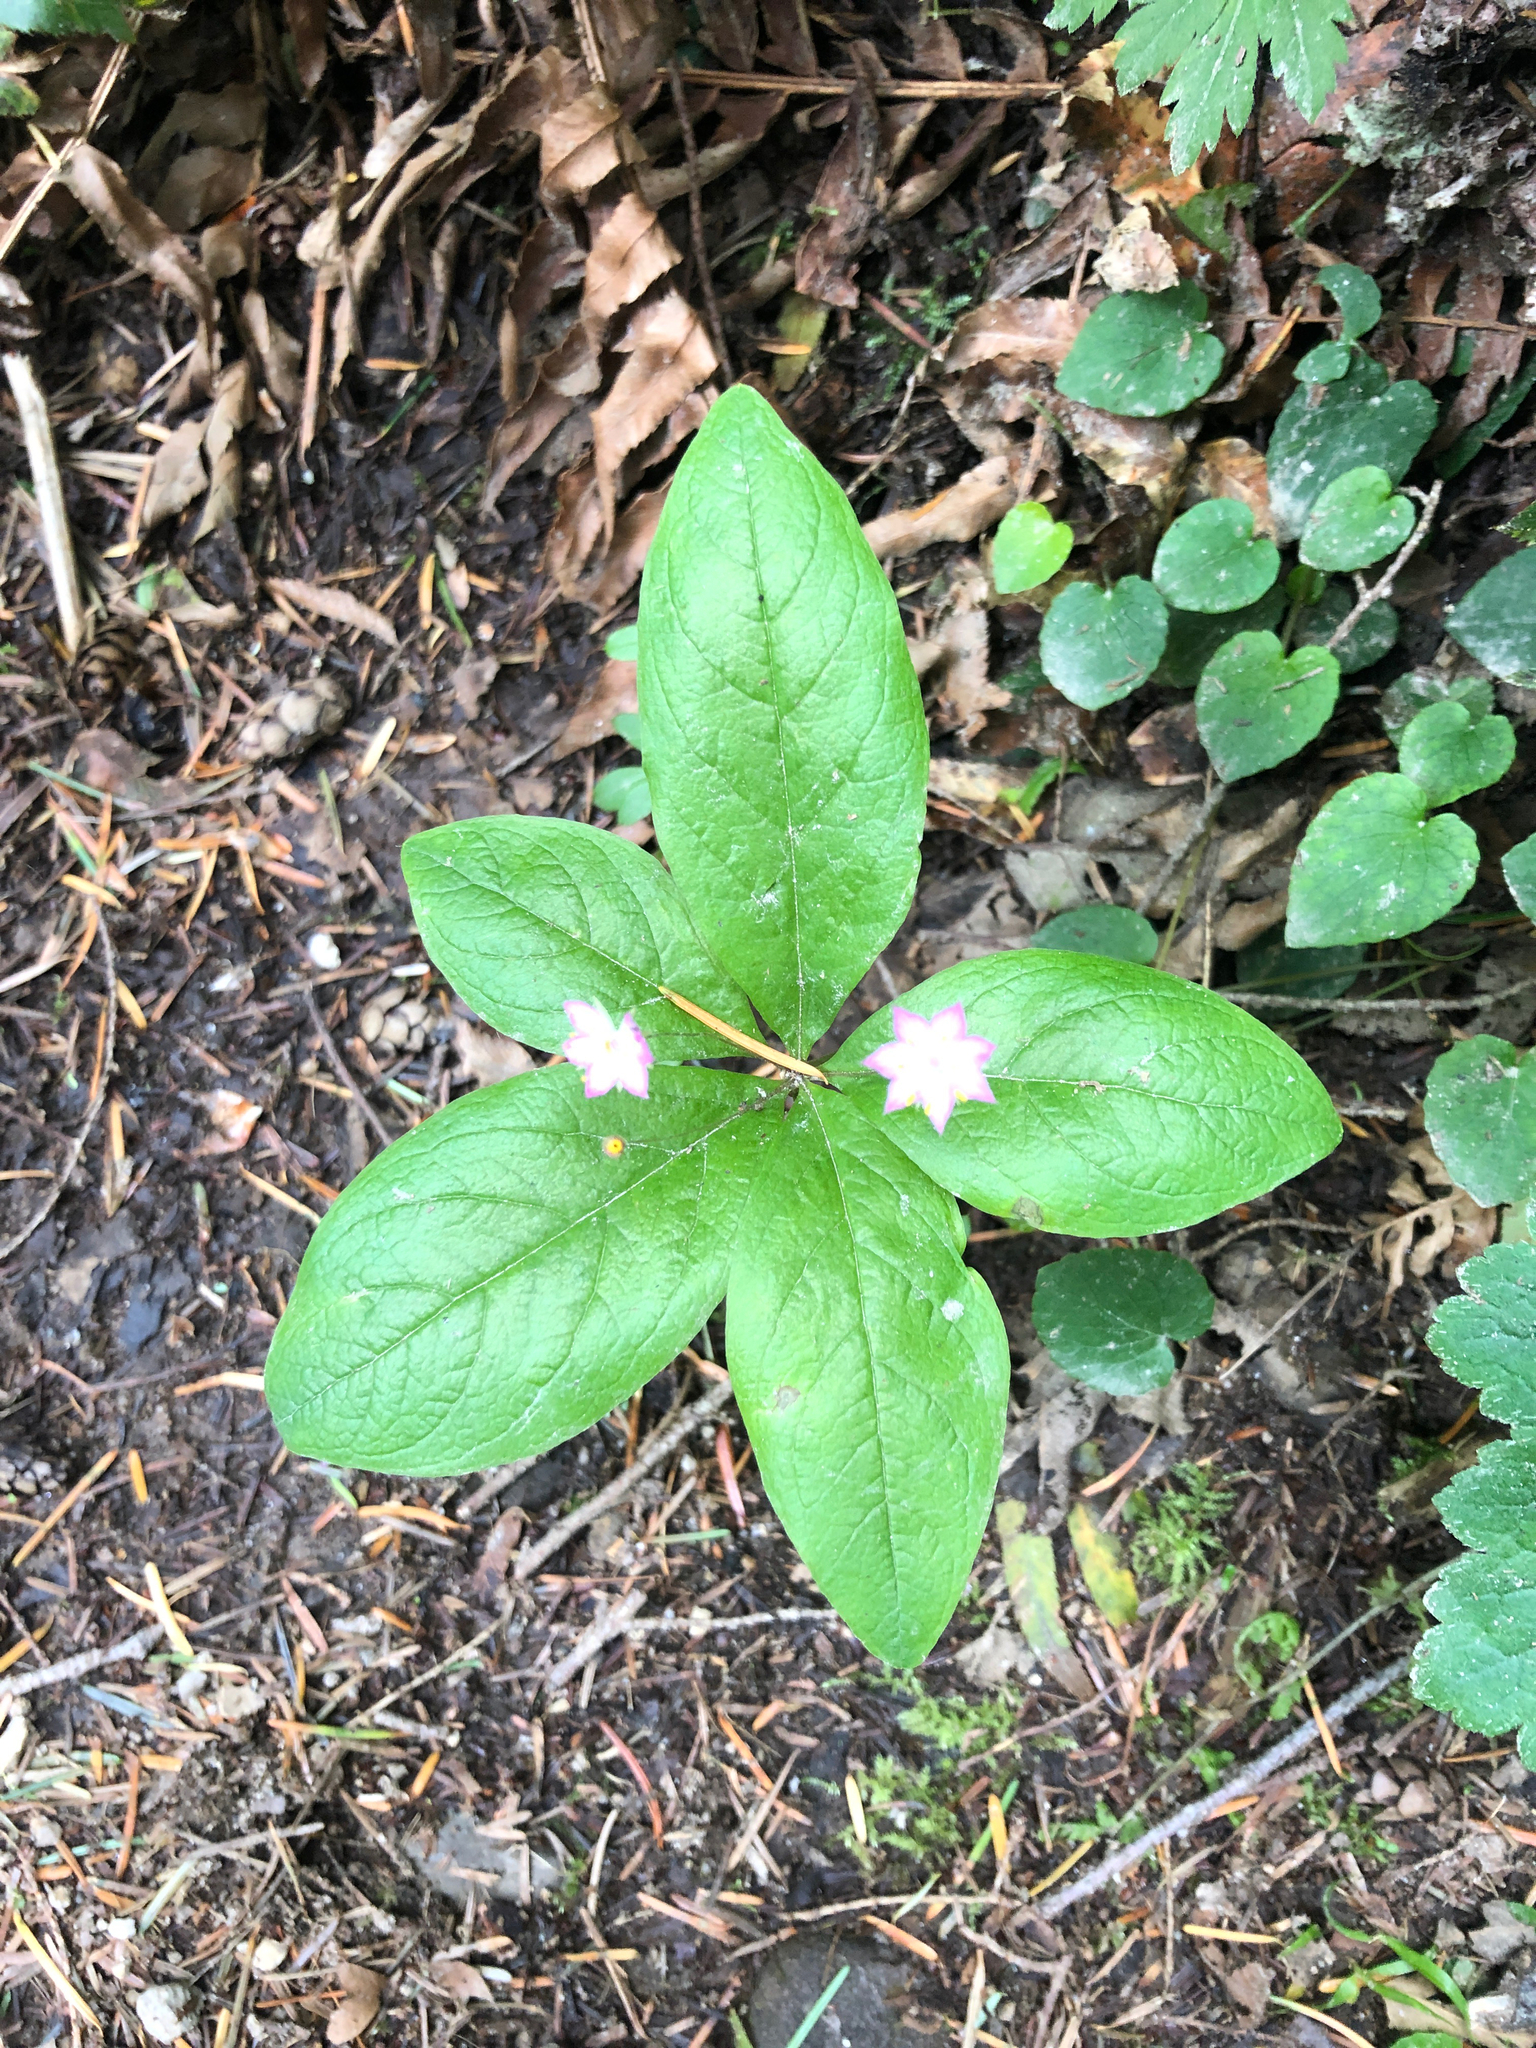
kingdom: Plantae
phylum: Tracheophyta
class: Magnoliopsida
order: Ericales
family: Primulaceae
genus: Lysimachia
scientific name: Lysimachia latifolia
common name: Pacific starflower
